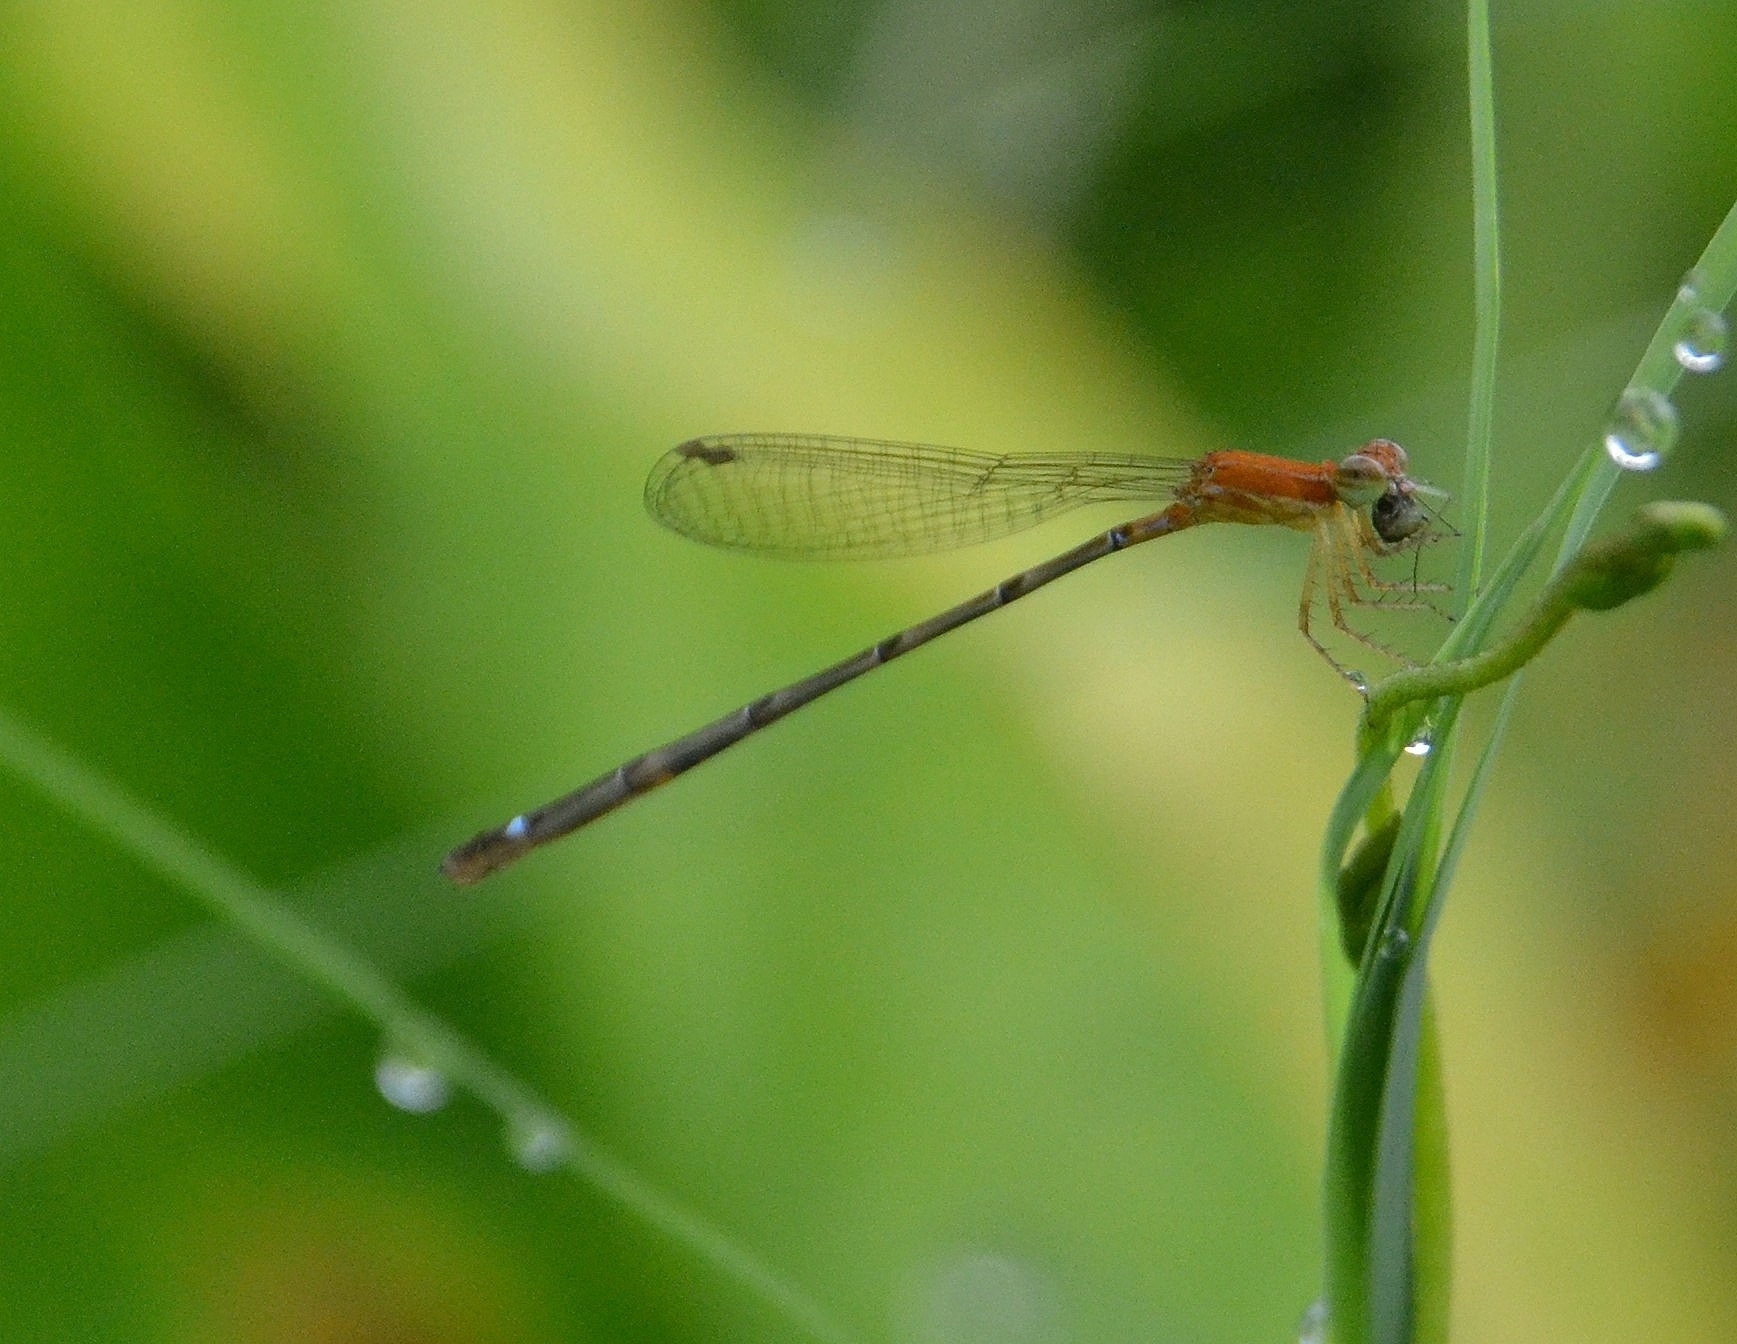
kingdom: Animalia
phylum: Arthropoda
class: Insecta
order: Odonata
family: Coenagrionidae
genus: Mortonagrion
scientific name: Mortonagrion varralli
